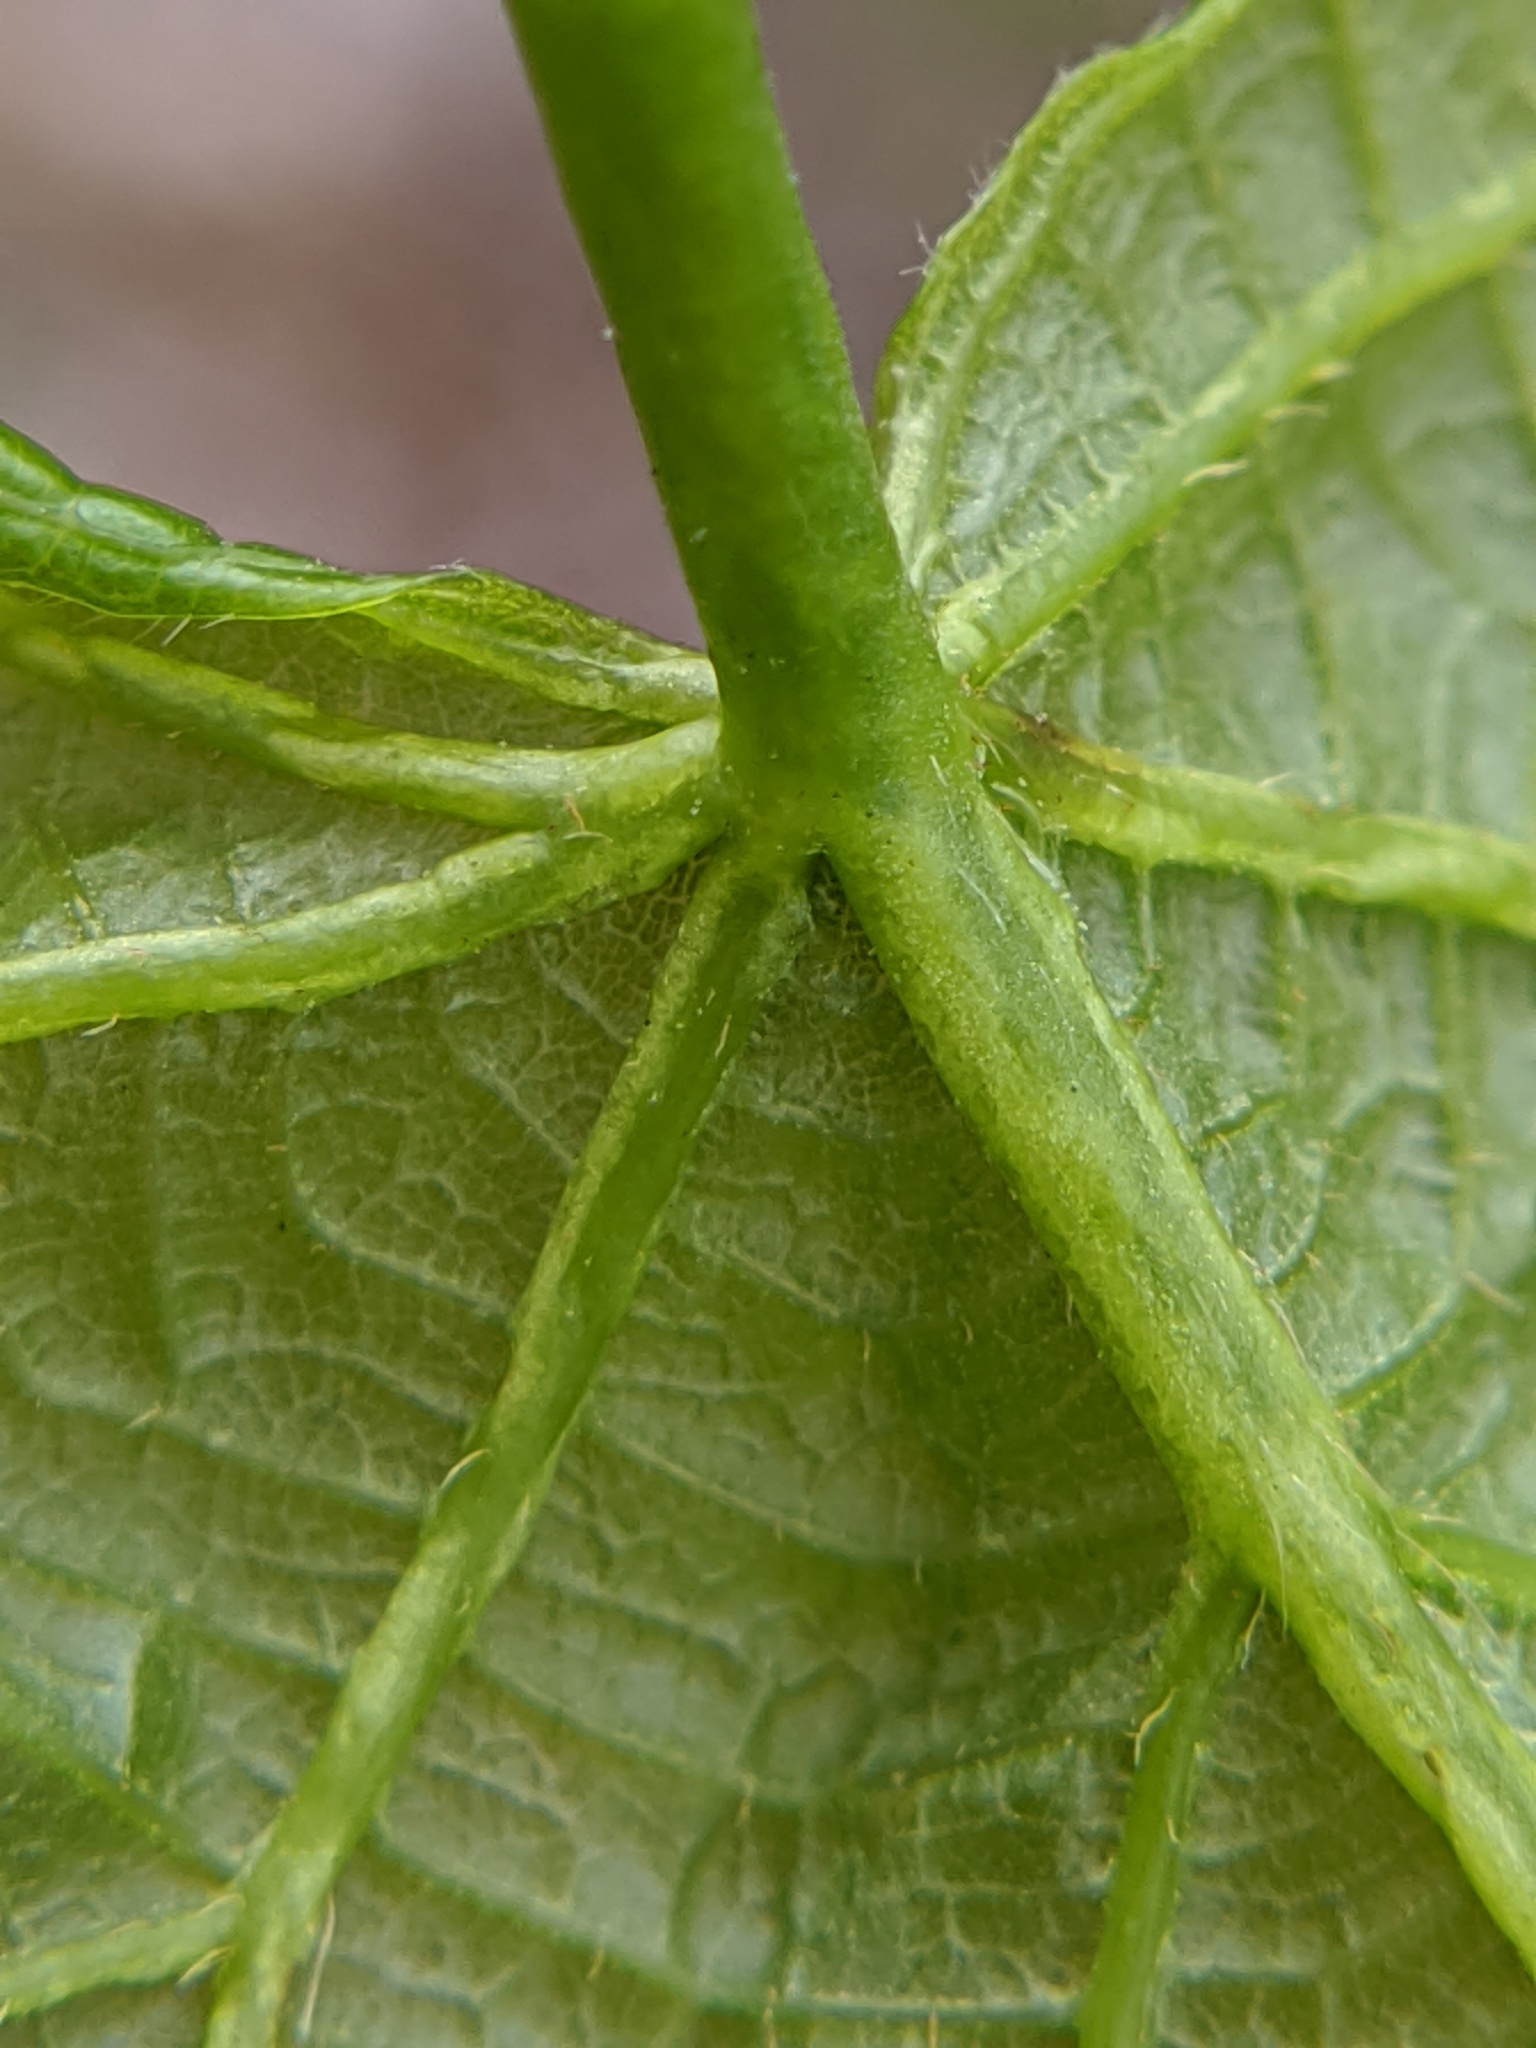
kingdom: Plantae
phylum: Tracheophyta
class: Magnoliopsida
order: Malvales
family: Malvaceae
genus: Tilia
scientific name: Tilia americana
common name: Basswood
